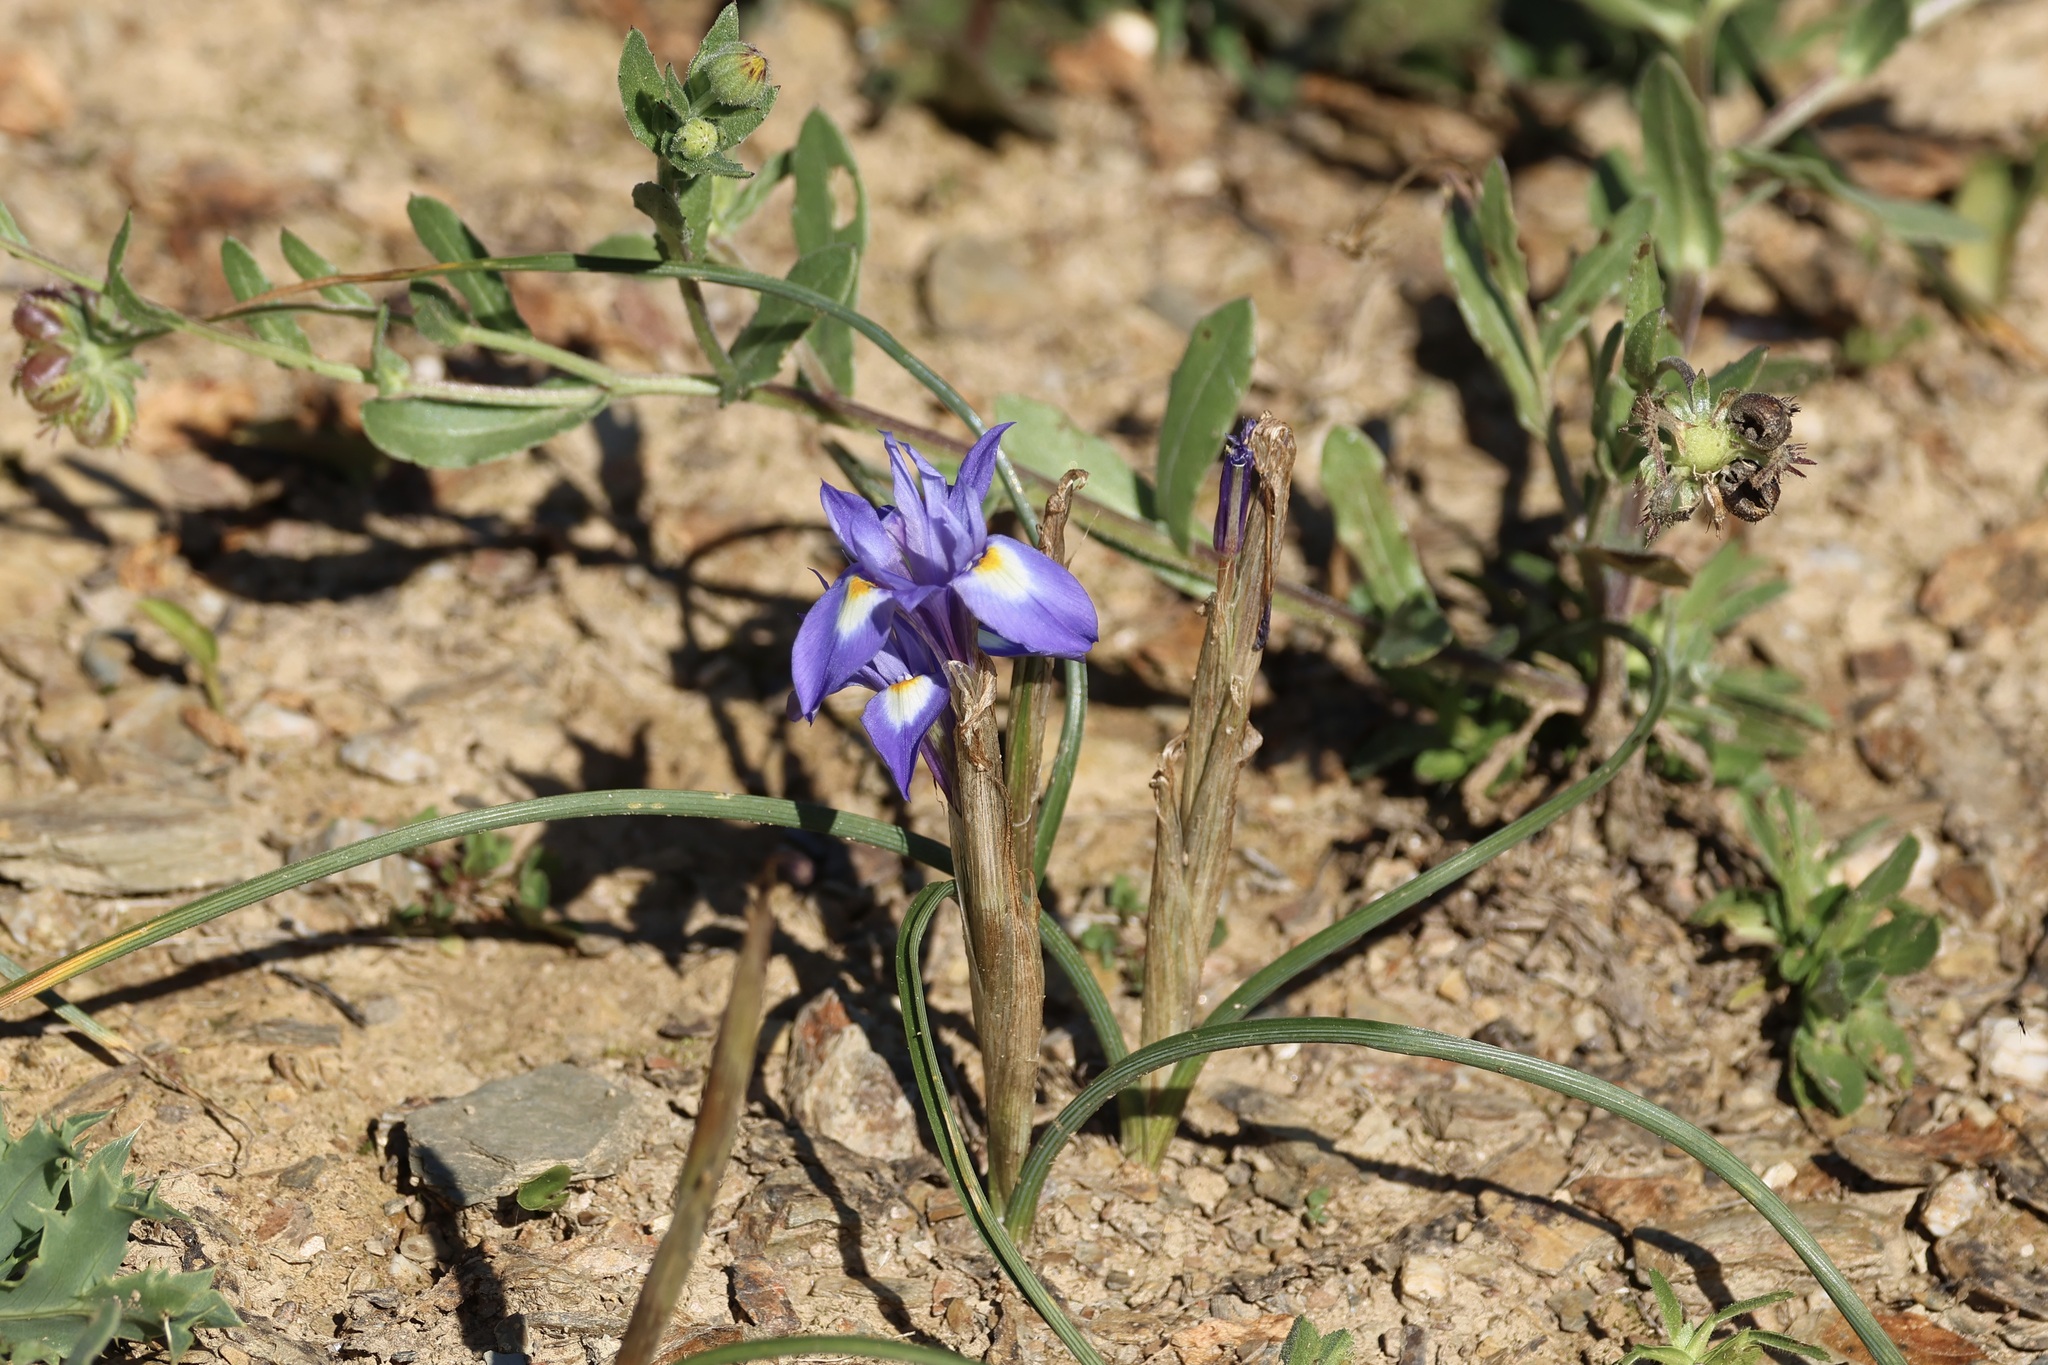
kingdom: Plantae
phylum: Tracheophyta
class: Liliopsida
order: Asparagales
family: Iridaceae
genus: Moraea
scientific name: Moraea sisyrinchium
